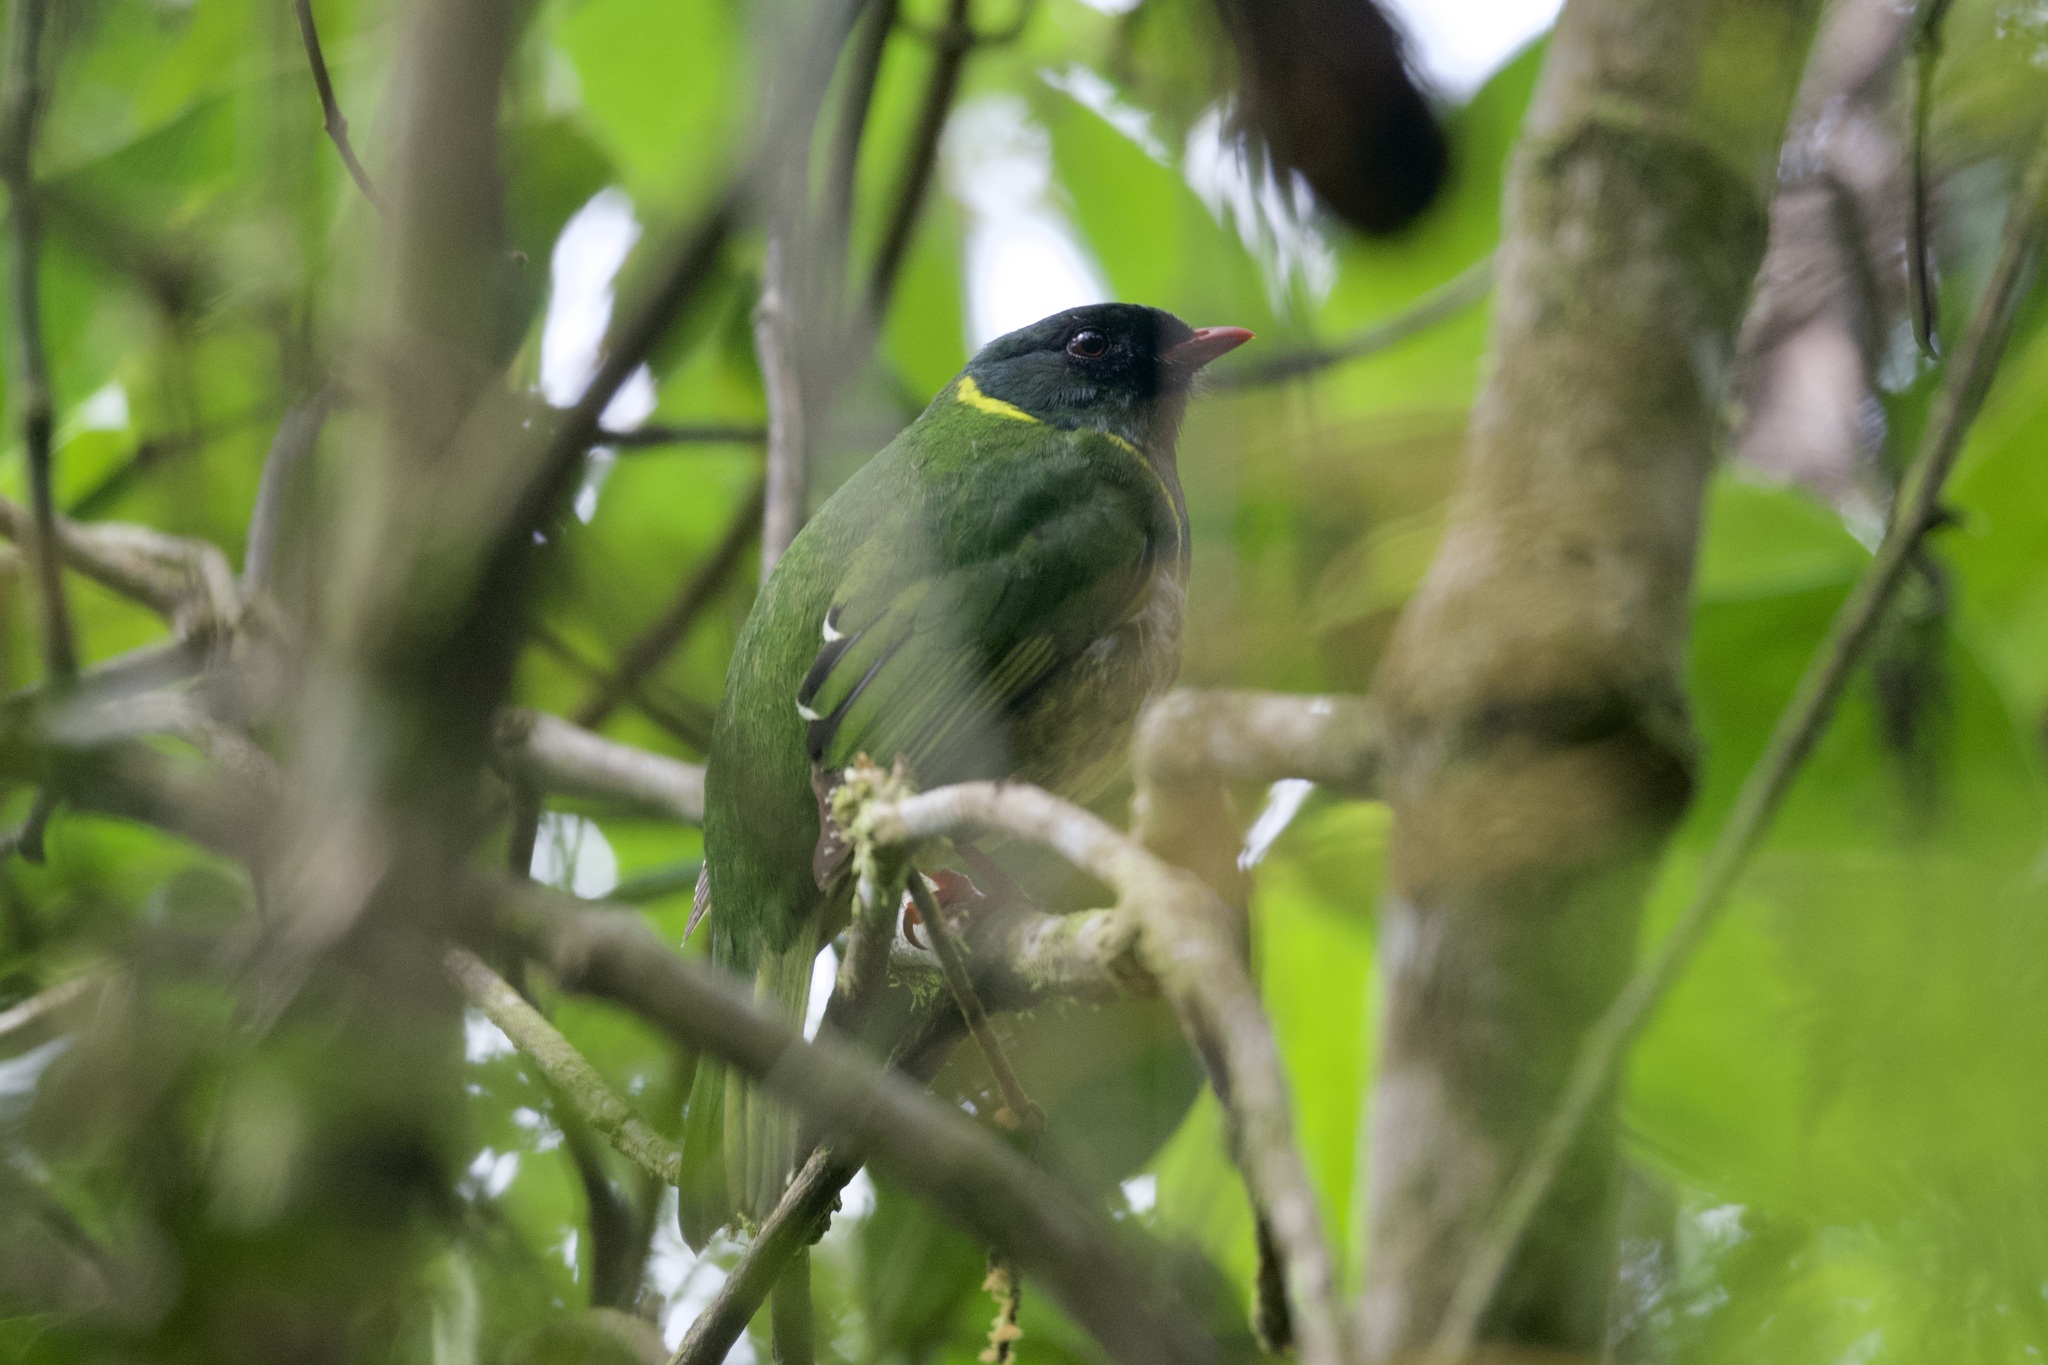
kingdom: Animalia
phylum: Chordata
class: Aves
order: Passeriformes
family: Cotingidae
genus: Pipreola
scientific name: Pipreola riefferii
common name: Green-and-black fruiteater
